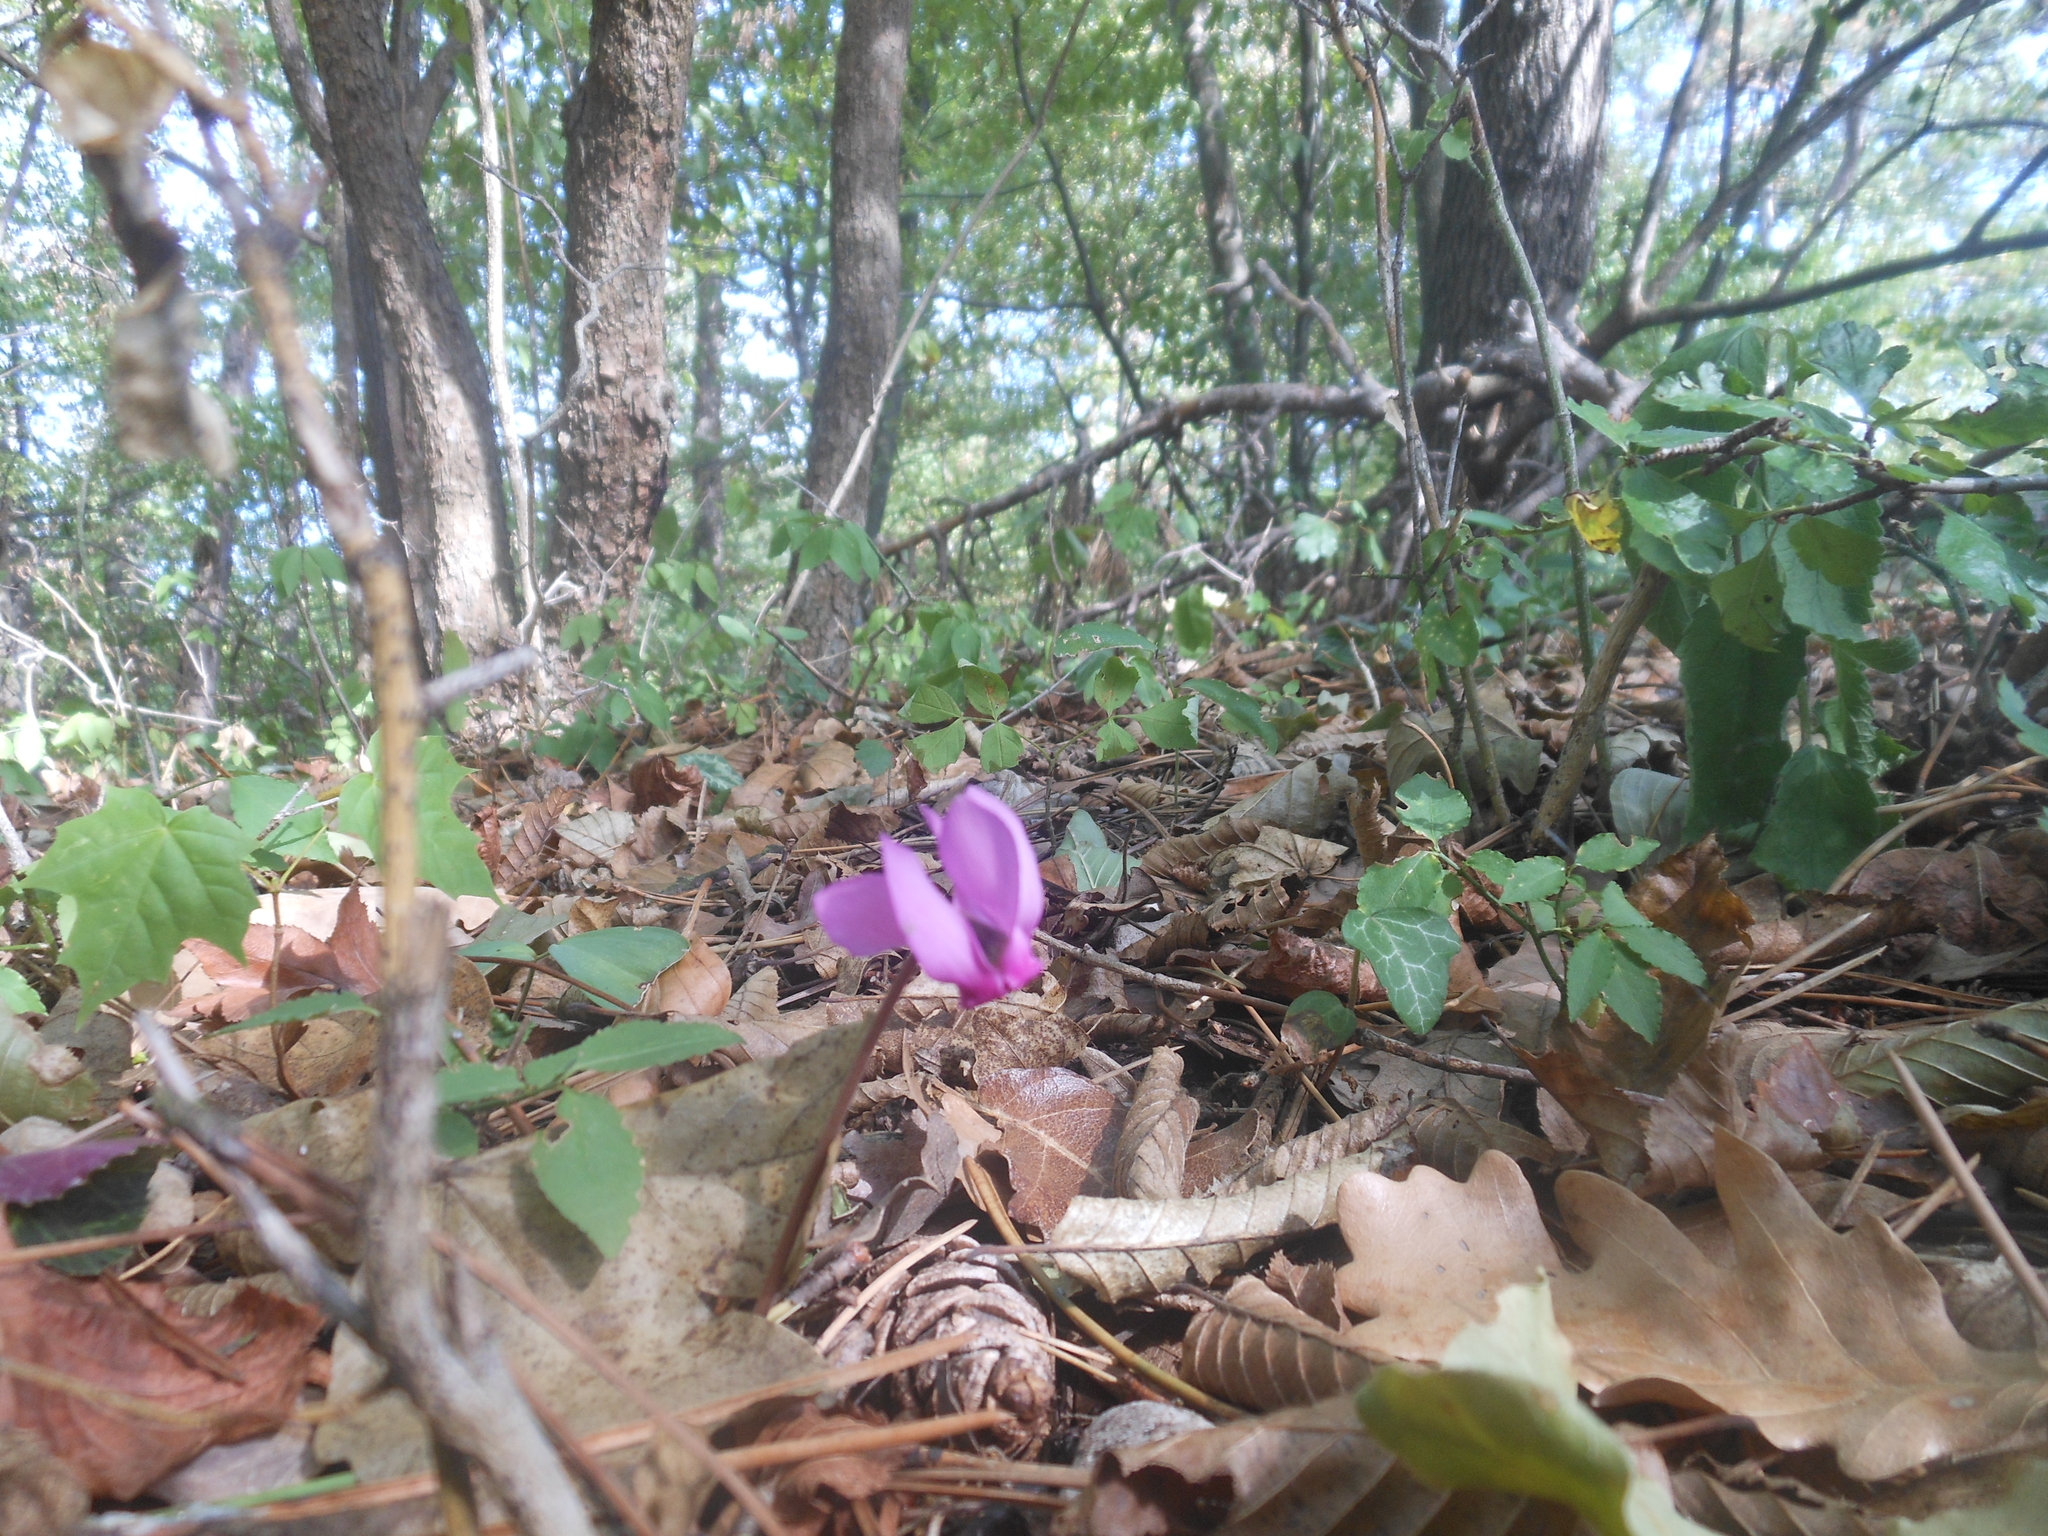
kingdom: Plantae
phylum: Tracheophyta
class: Magnoliopsida
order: Ericales
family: Primulaceae
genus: Cyclamen
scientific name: Cyclamen purpurascens
